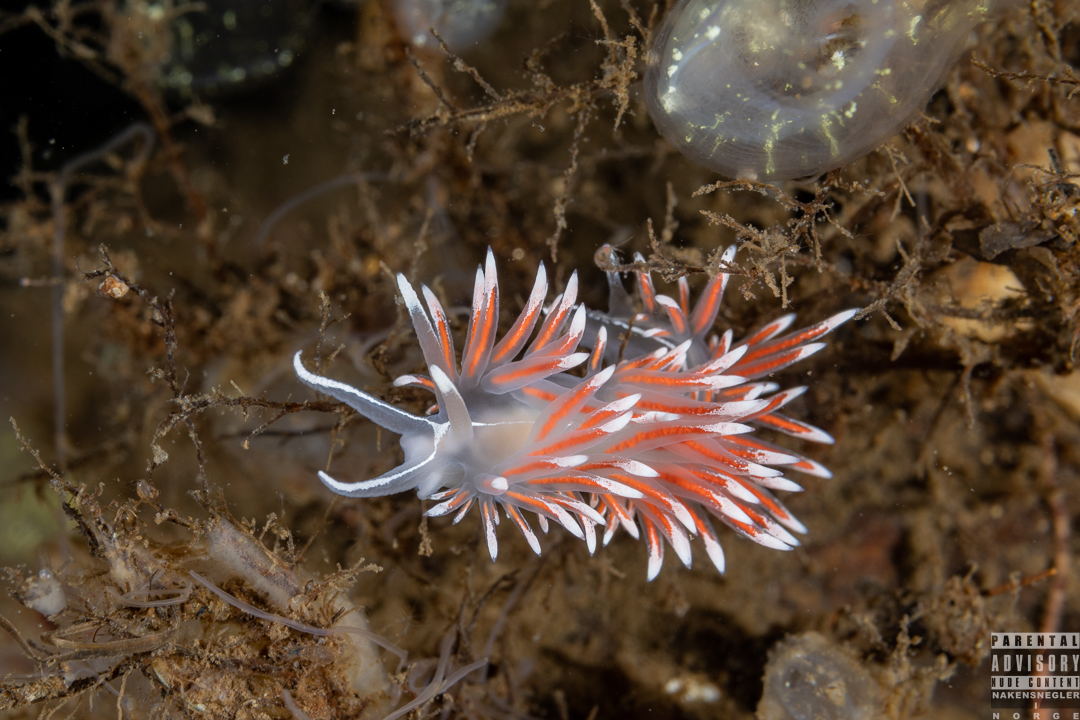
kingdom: Animalia
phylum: Mollusca
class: Gastropoda
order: Nudibranchia
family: Coryphellidae
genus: Coryphella
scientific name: Coryphella lineata
